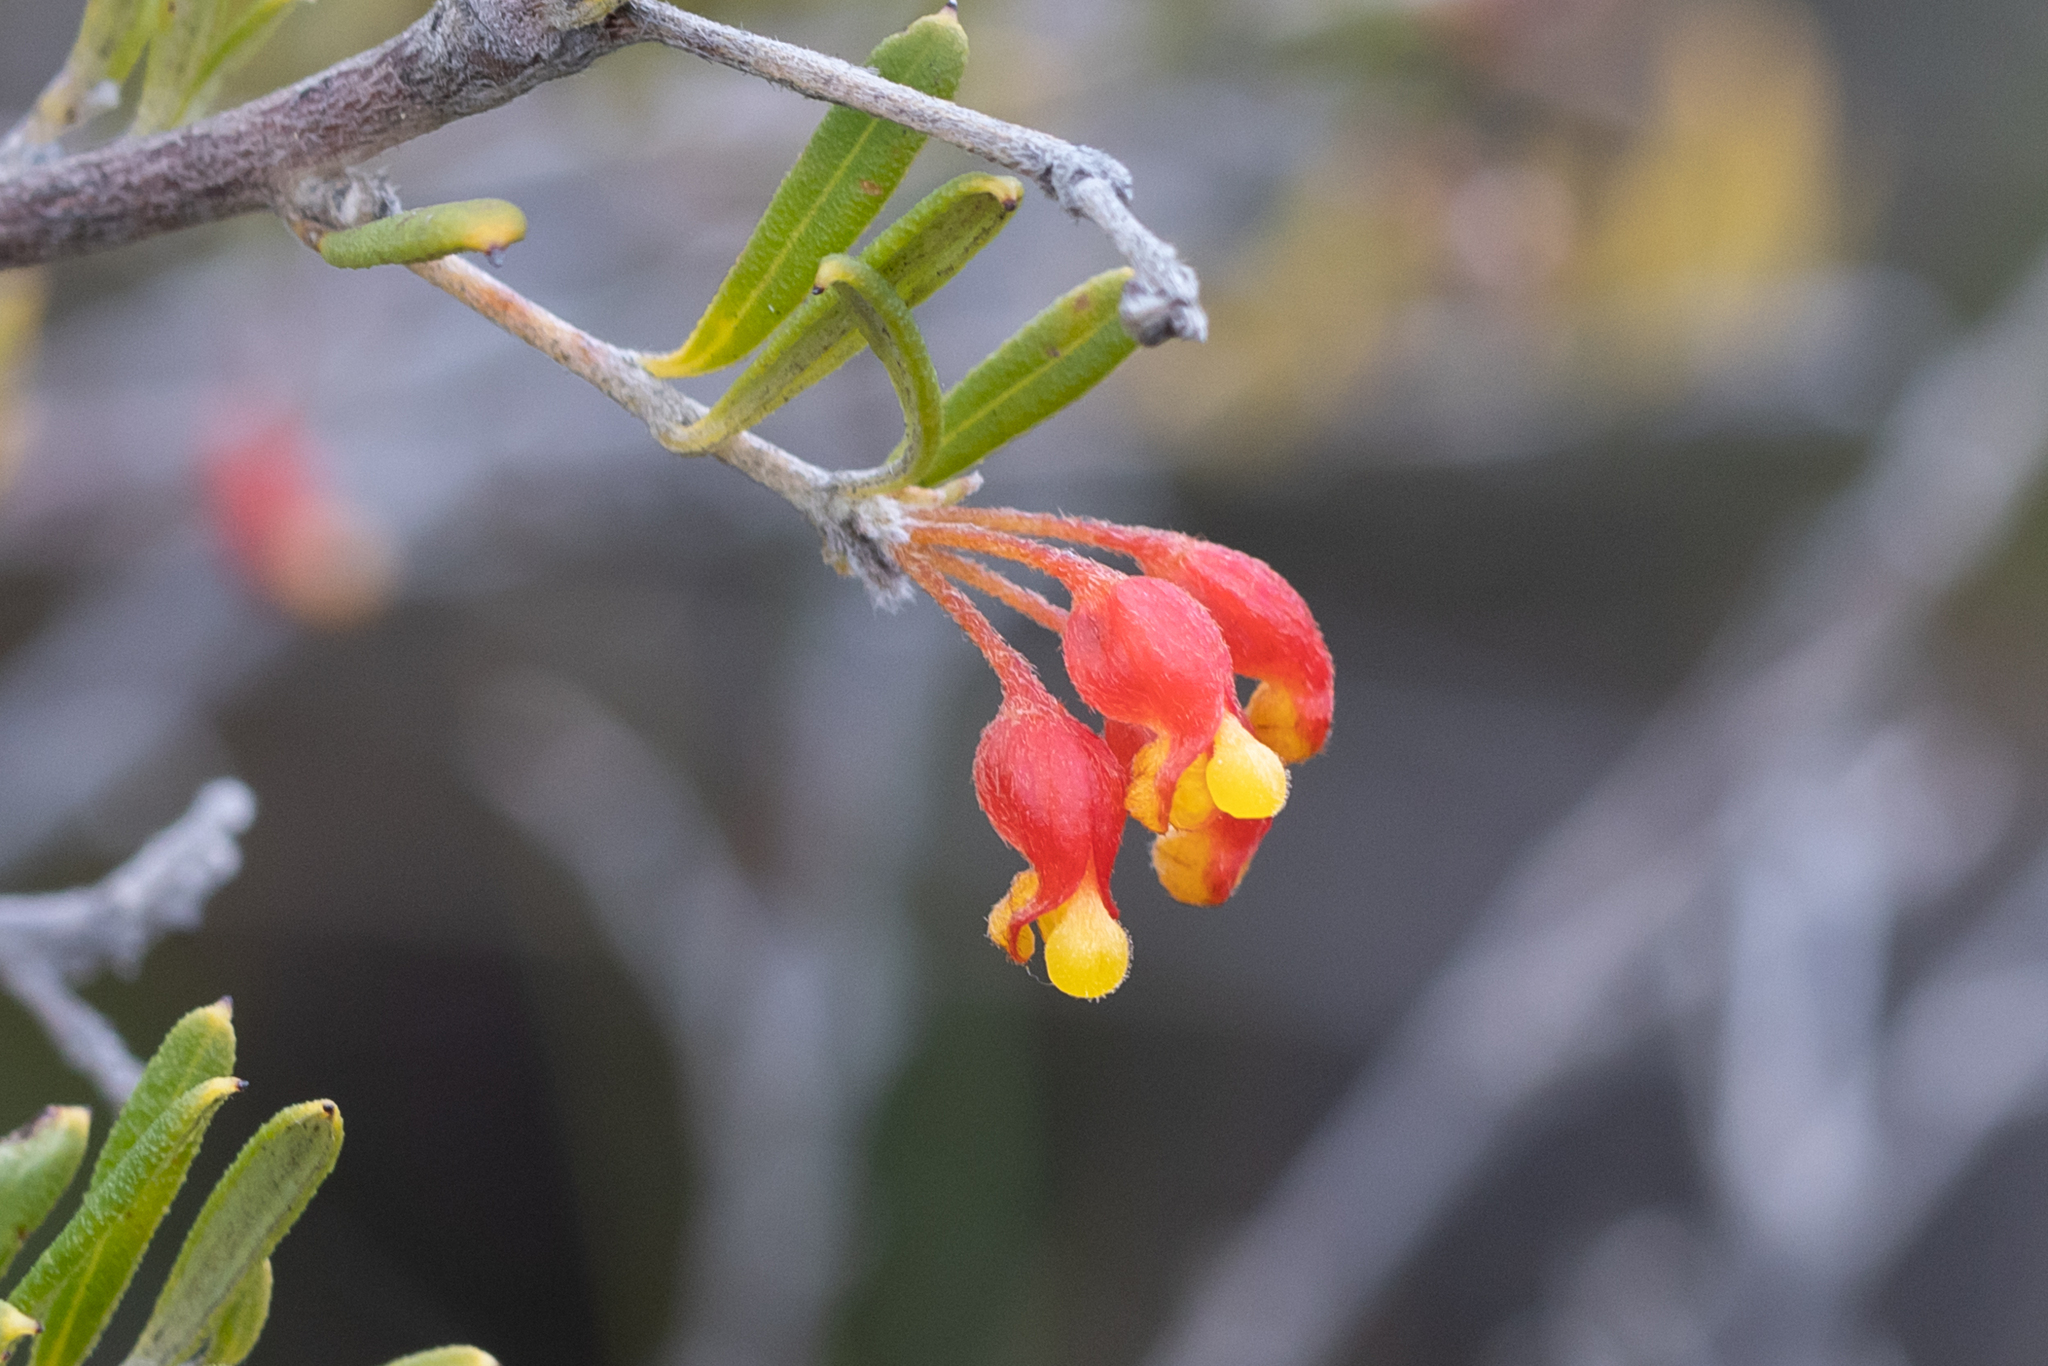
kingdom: Plantae
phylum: Tracheophyta
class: Magnoliopsida
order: Proteales
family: Proteaceae
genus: Grevillea
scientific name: Grevillea fasciculata
